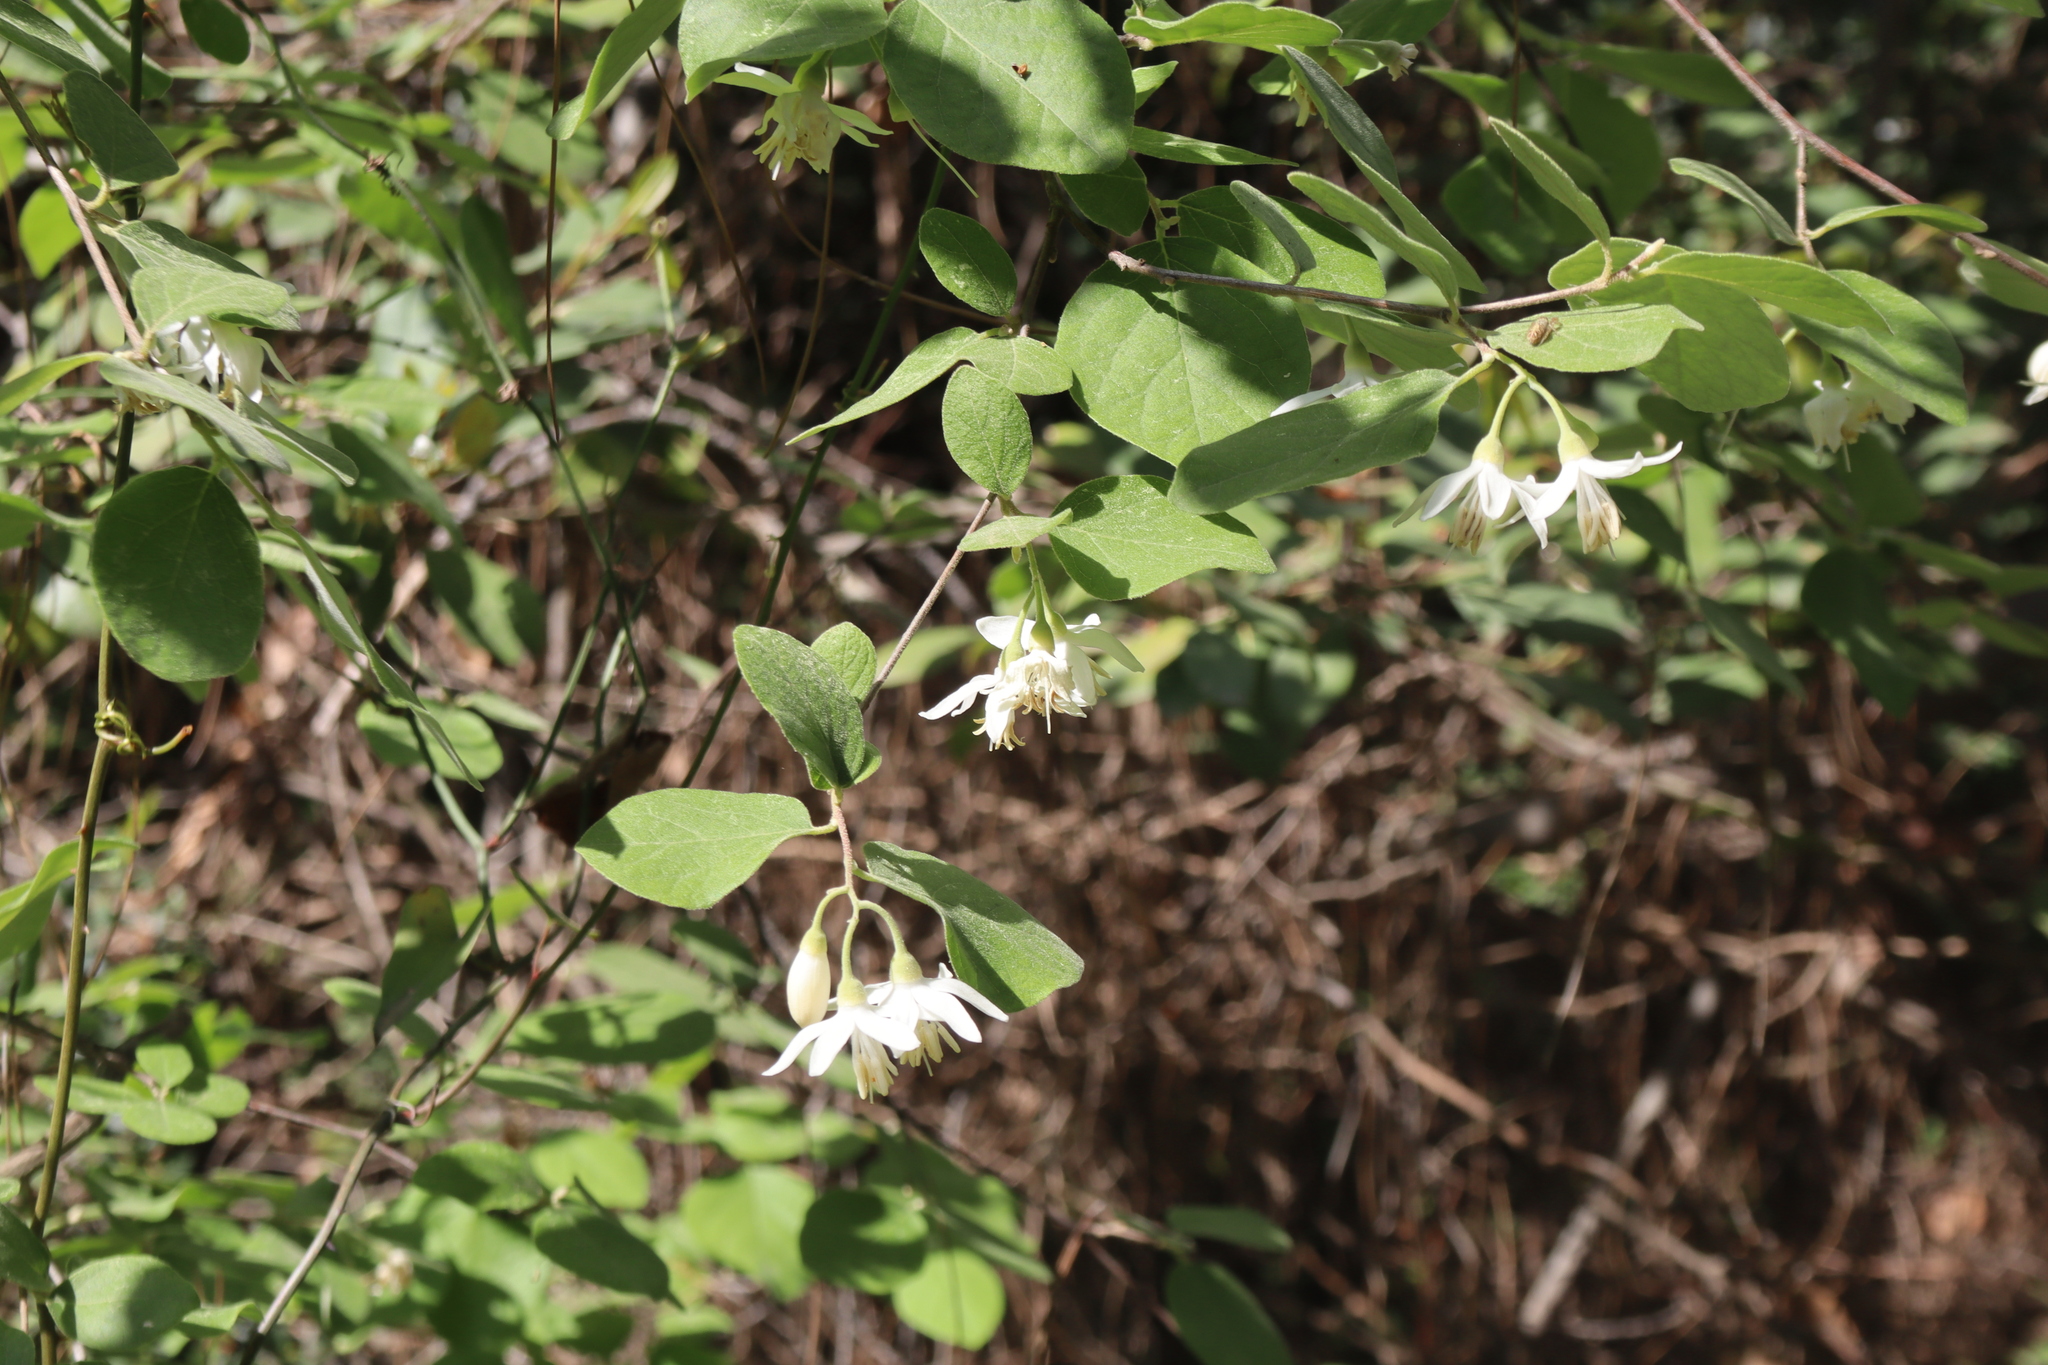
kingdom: Plantae
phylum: Tracheophyta
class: Magnoliopsida
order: Ericales
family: Styracaceae
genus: Styrax
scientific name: Styrax officinalis
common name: Storax
